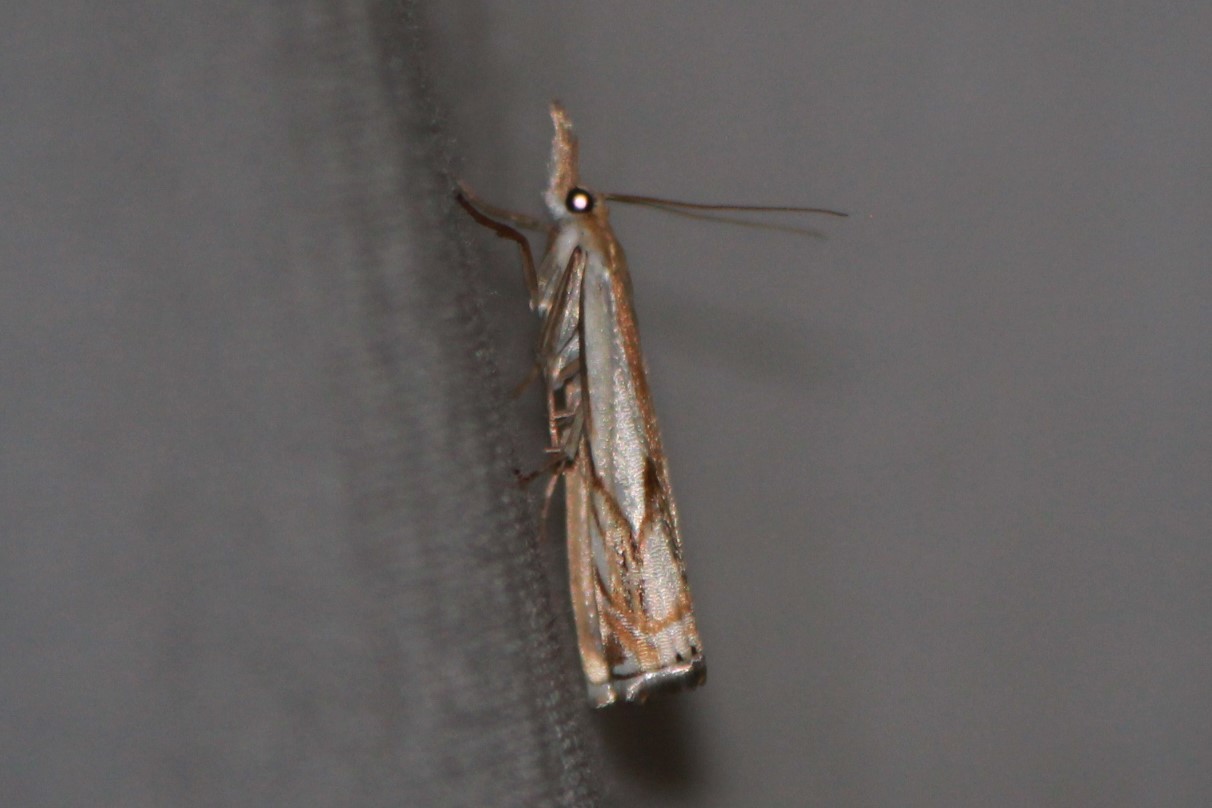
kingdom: Animalia
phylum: Arthropoda
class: Insecta
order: Lepidoptera
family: Crambidae
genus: Crambus
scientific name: Crambus agitatellus
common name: Double-banded grass-veneer
